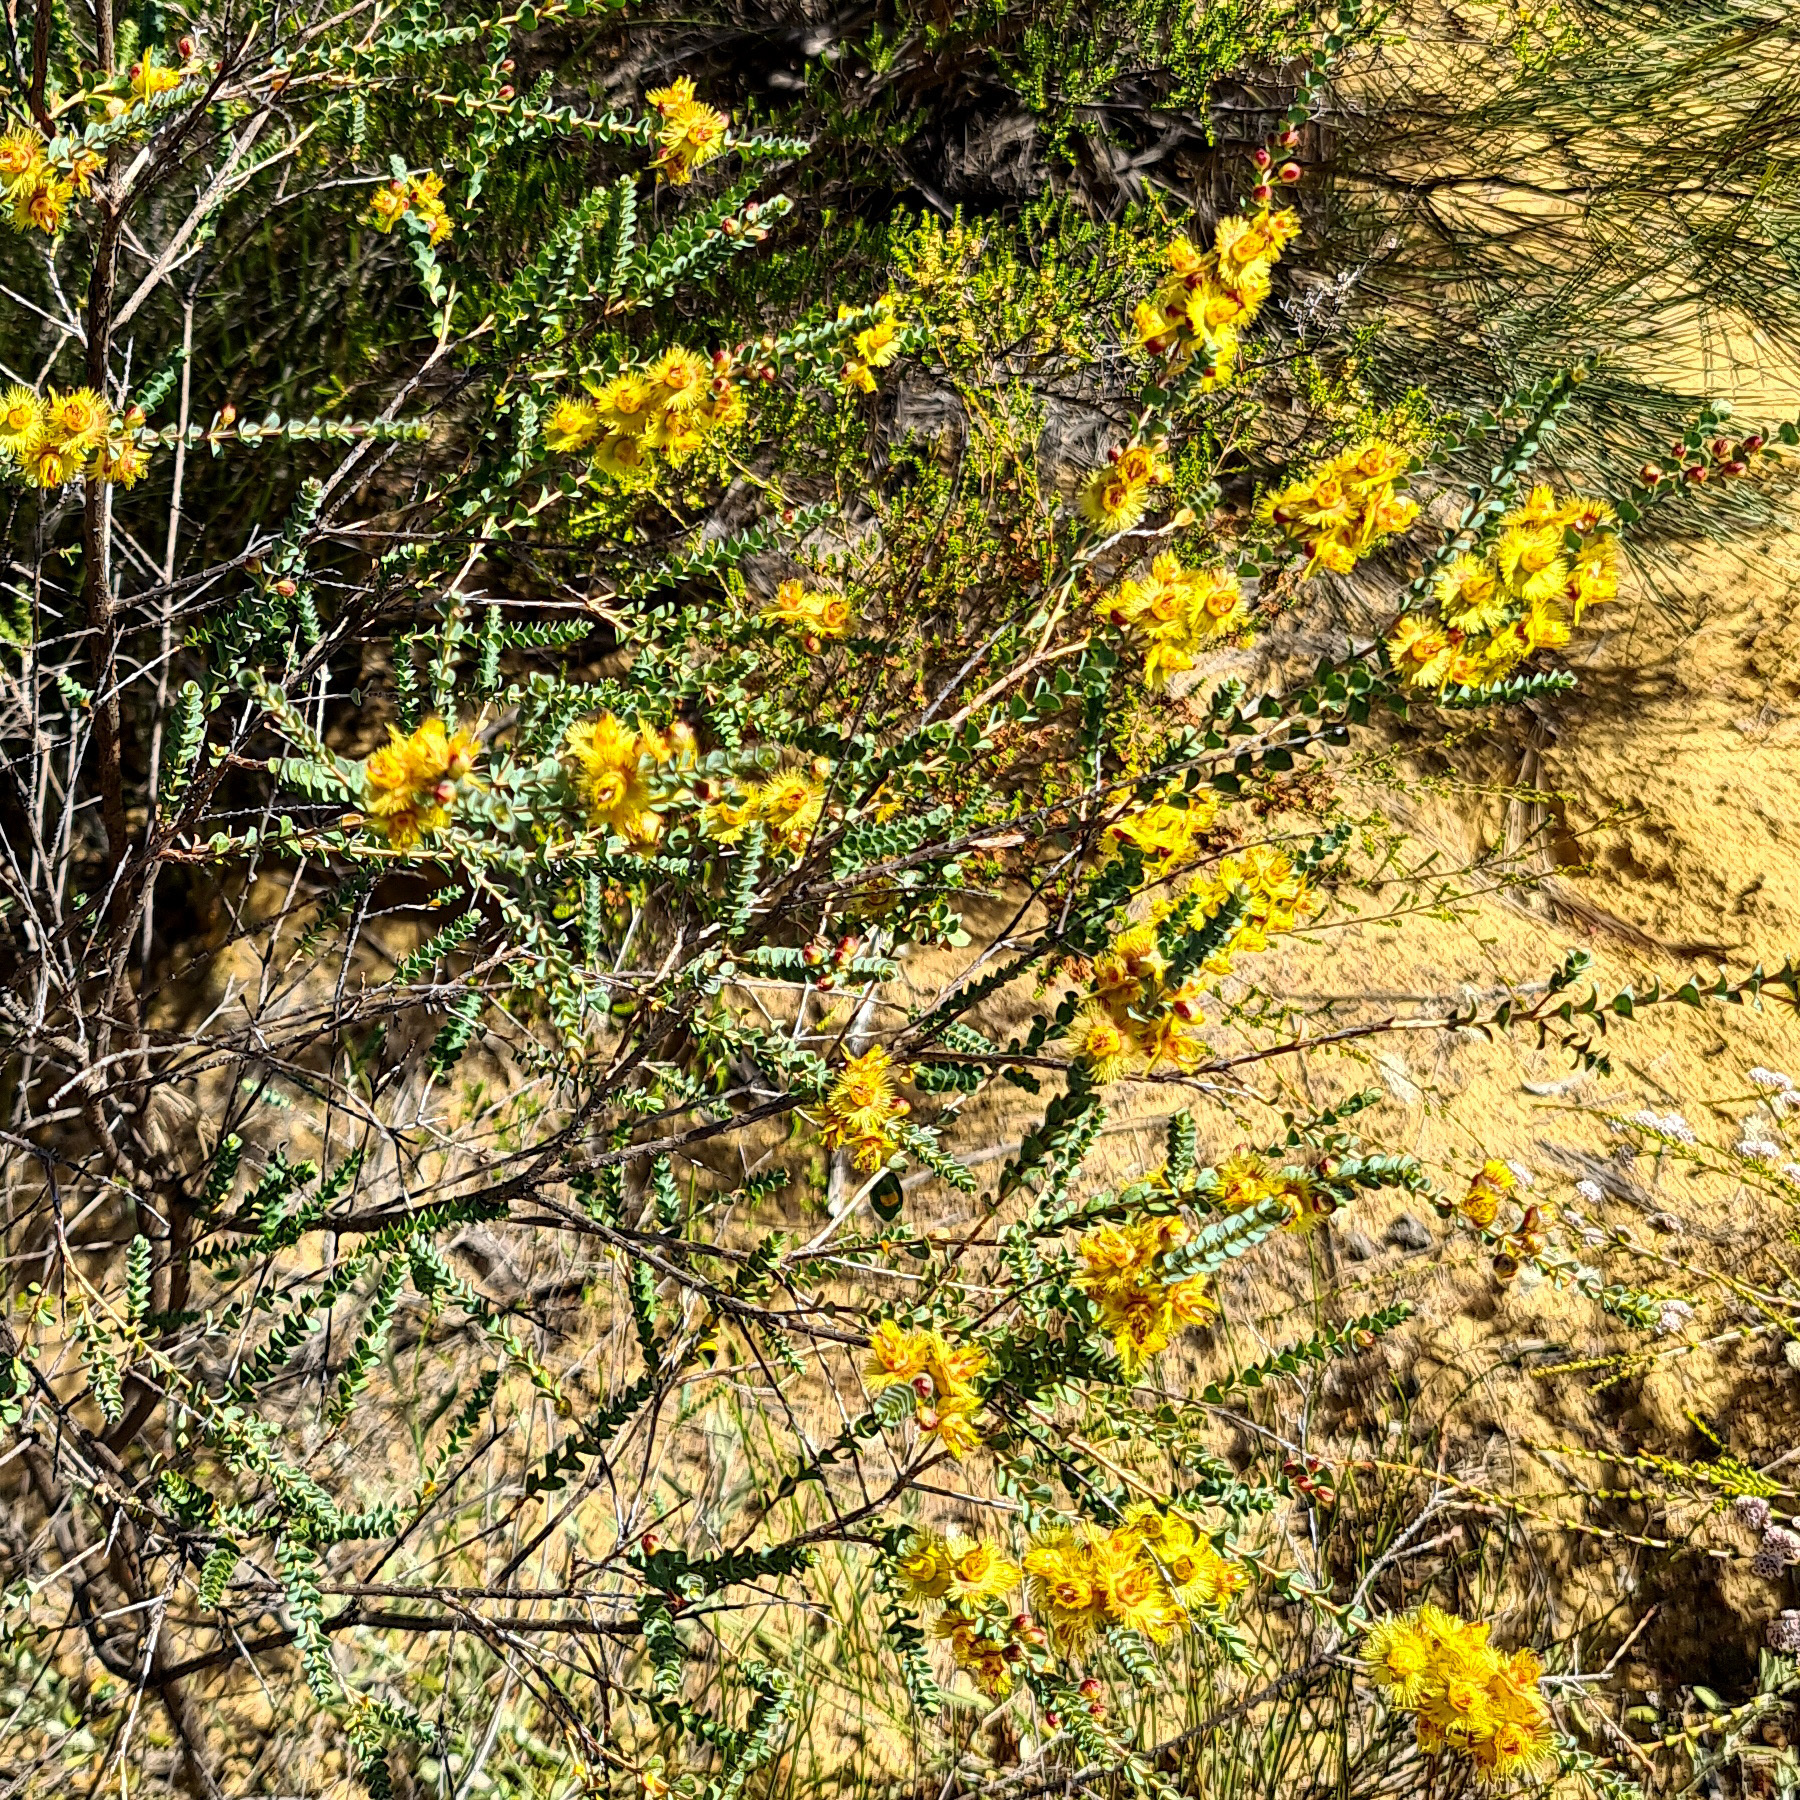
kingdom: Plantae
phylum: Tracheophyta
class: Magnoliopsida
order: Myrtales
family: Myrtaceae
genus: Verticordia
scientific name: Verticordia chrysostachys
